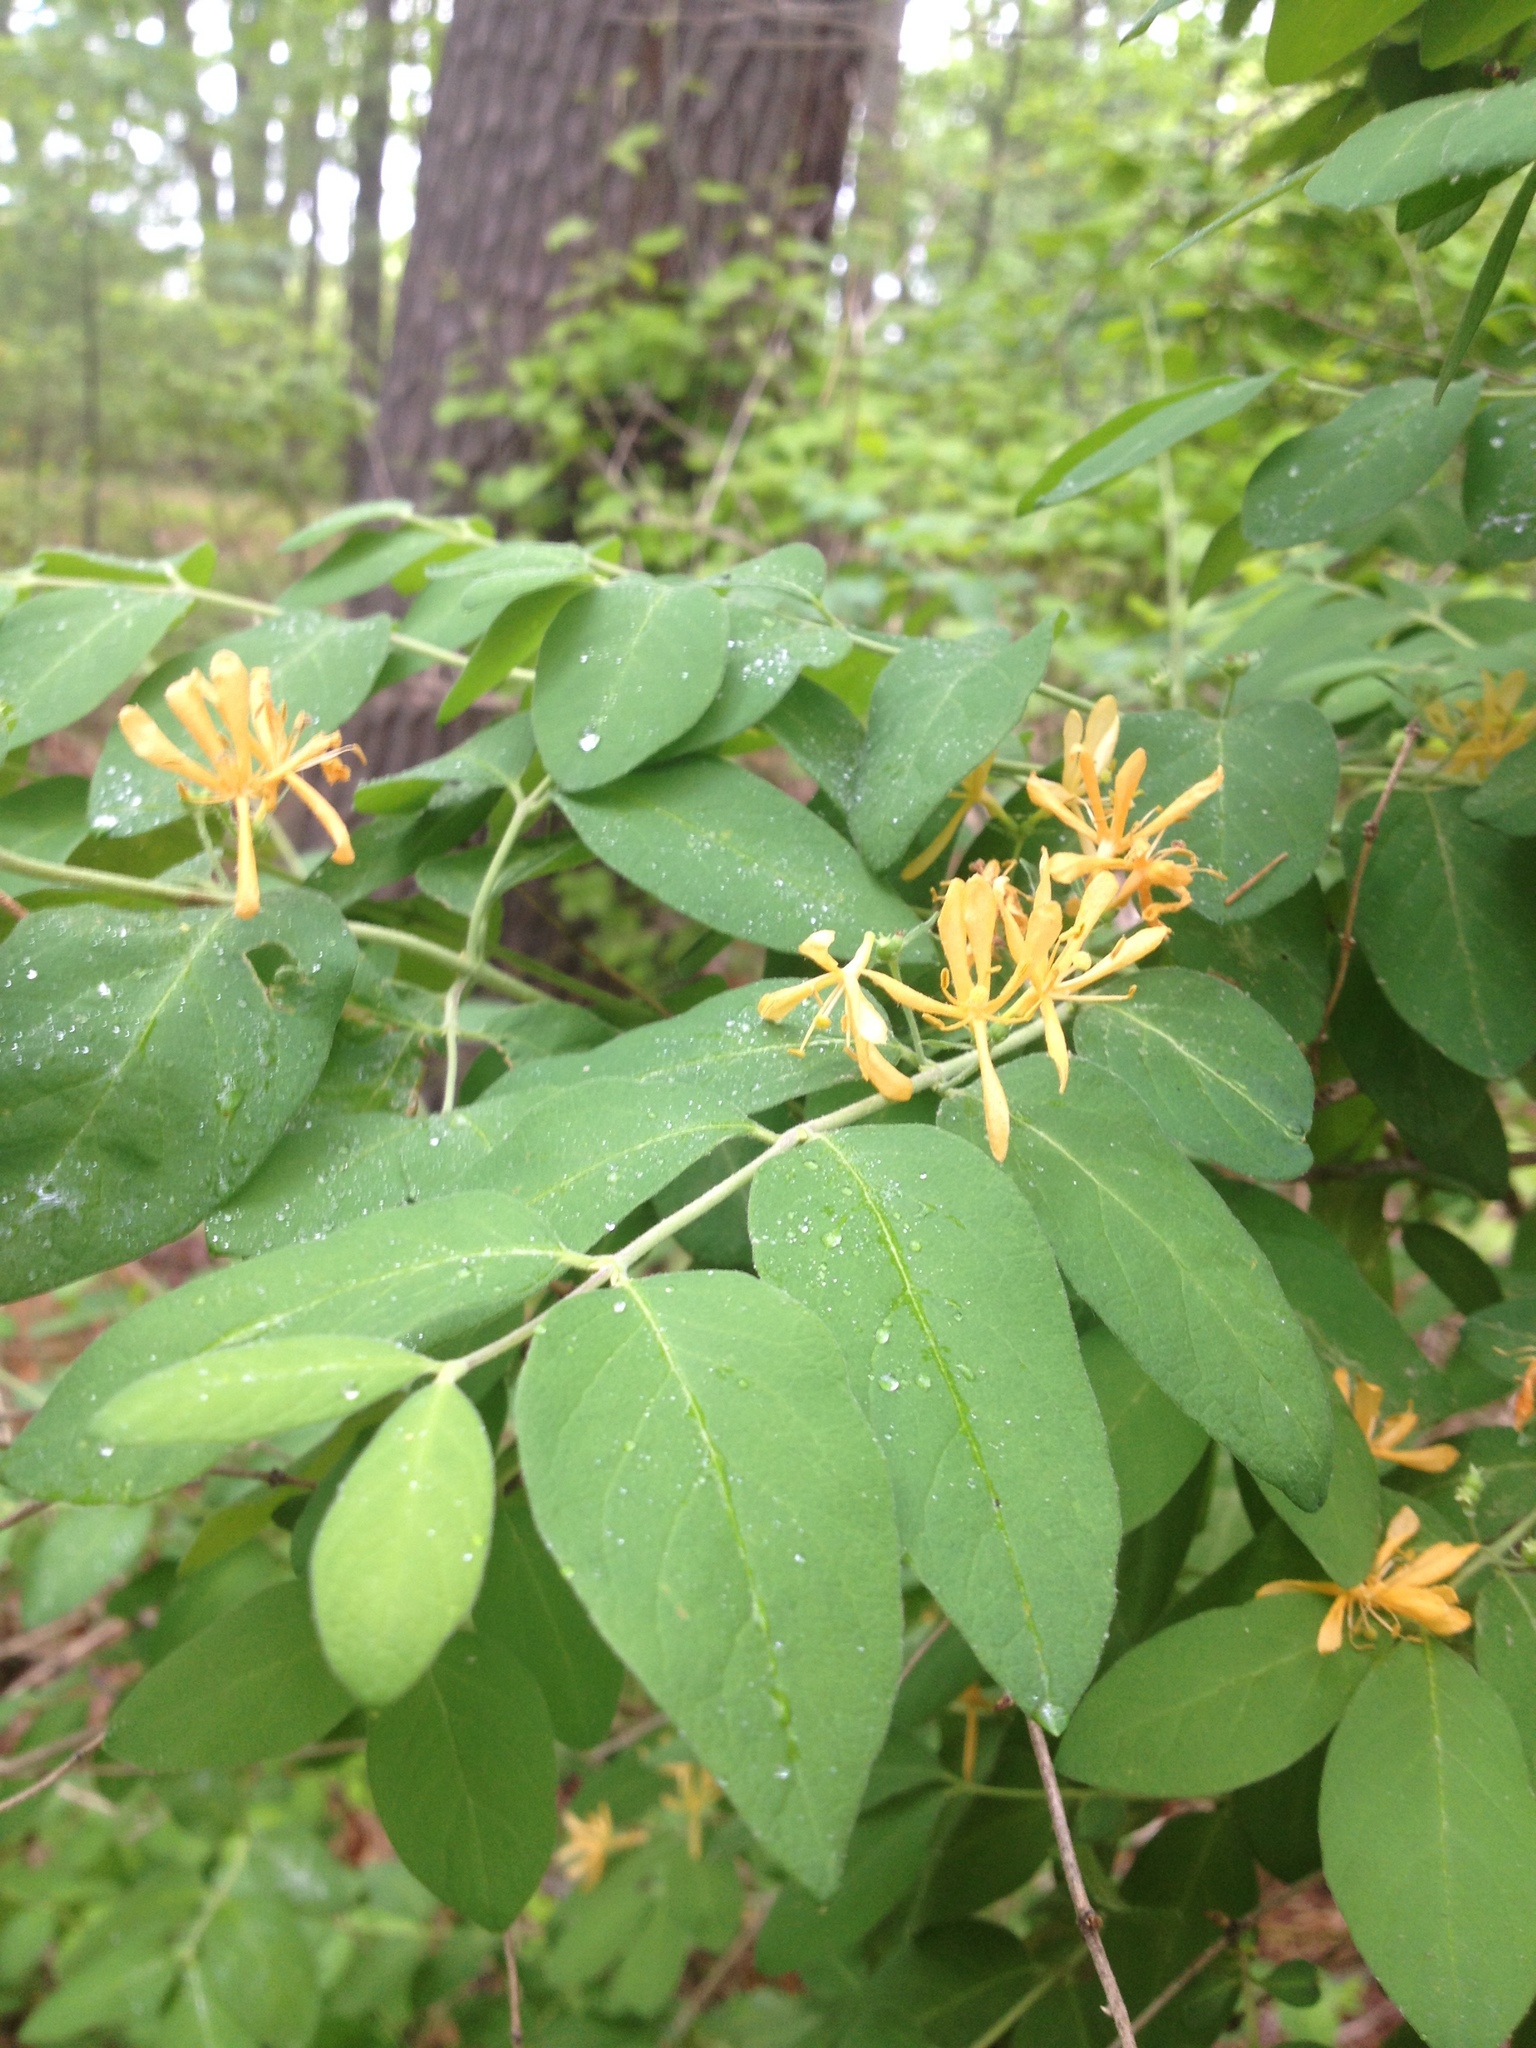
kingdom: Plantae
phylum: Tracheophyta
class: Magnoliopsida
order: Dipsacales
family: Caprifoliaceae
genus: Lonicera
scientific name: Lonicera
